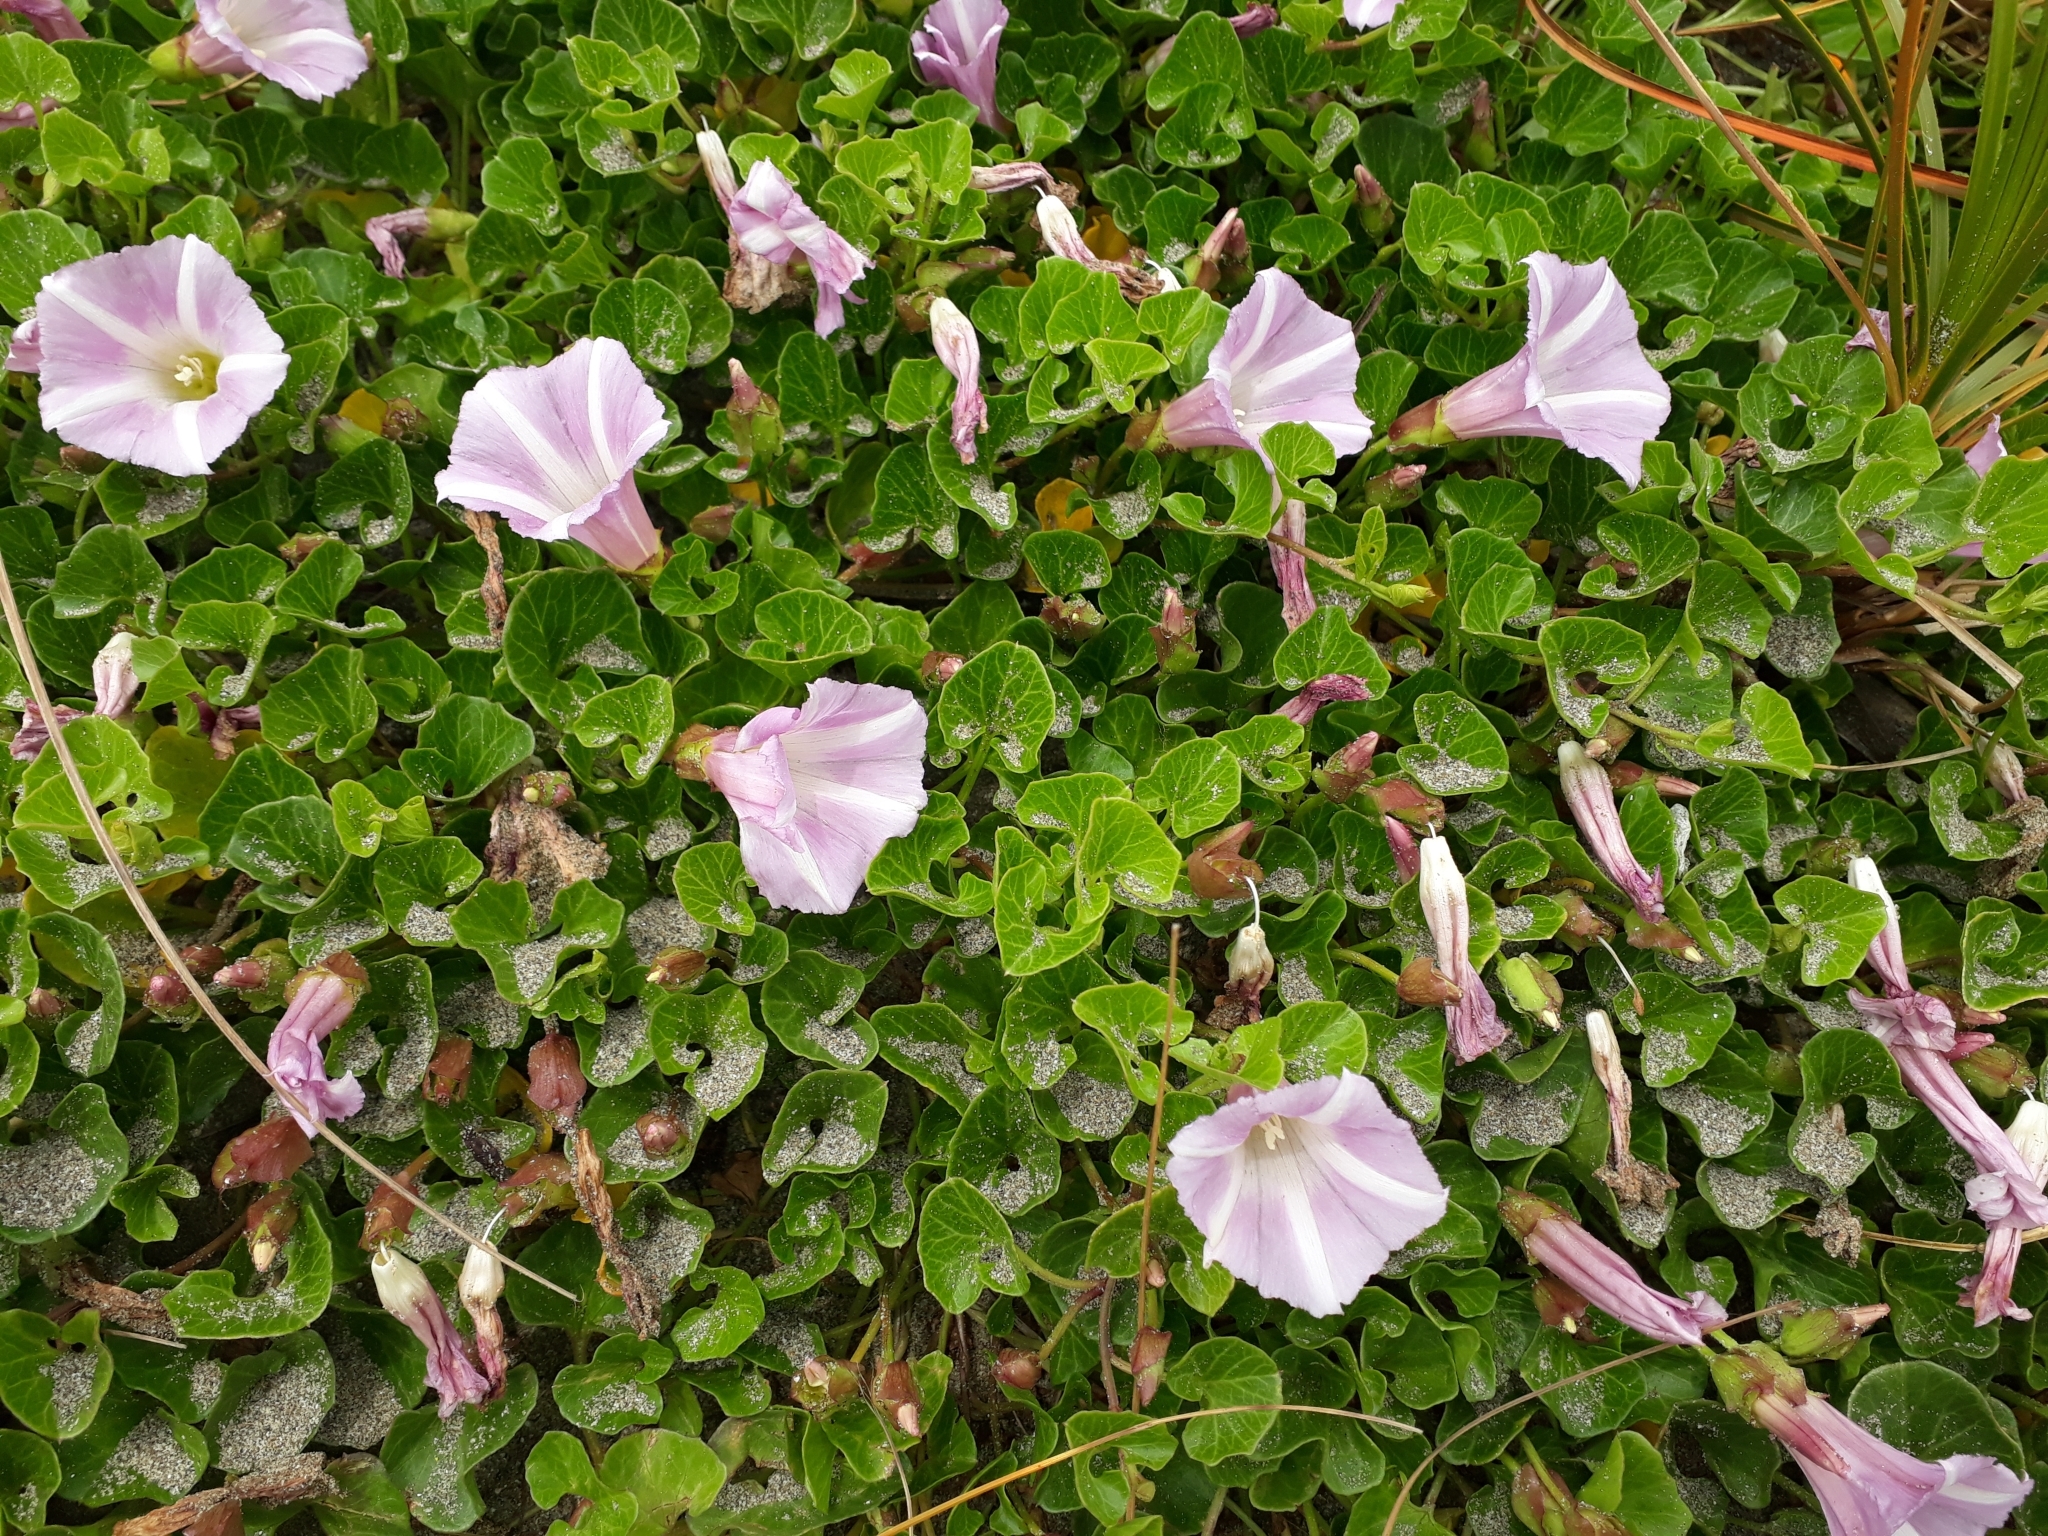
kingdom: Plantae
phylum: Tracheophyta
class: Magnoliopsida
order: Solanales
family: Convolvulaceae
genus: Calystegia
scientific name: Calystegia soldanella
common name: Sea bindweed
